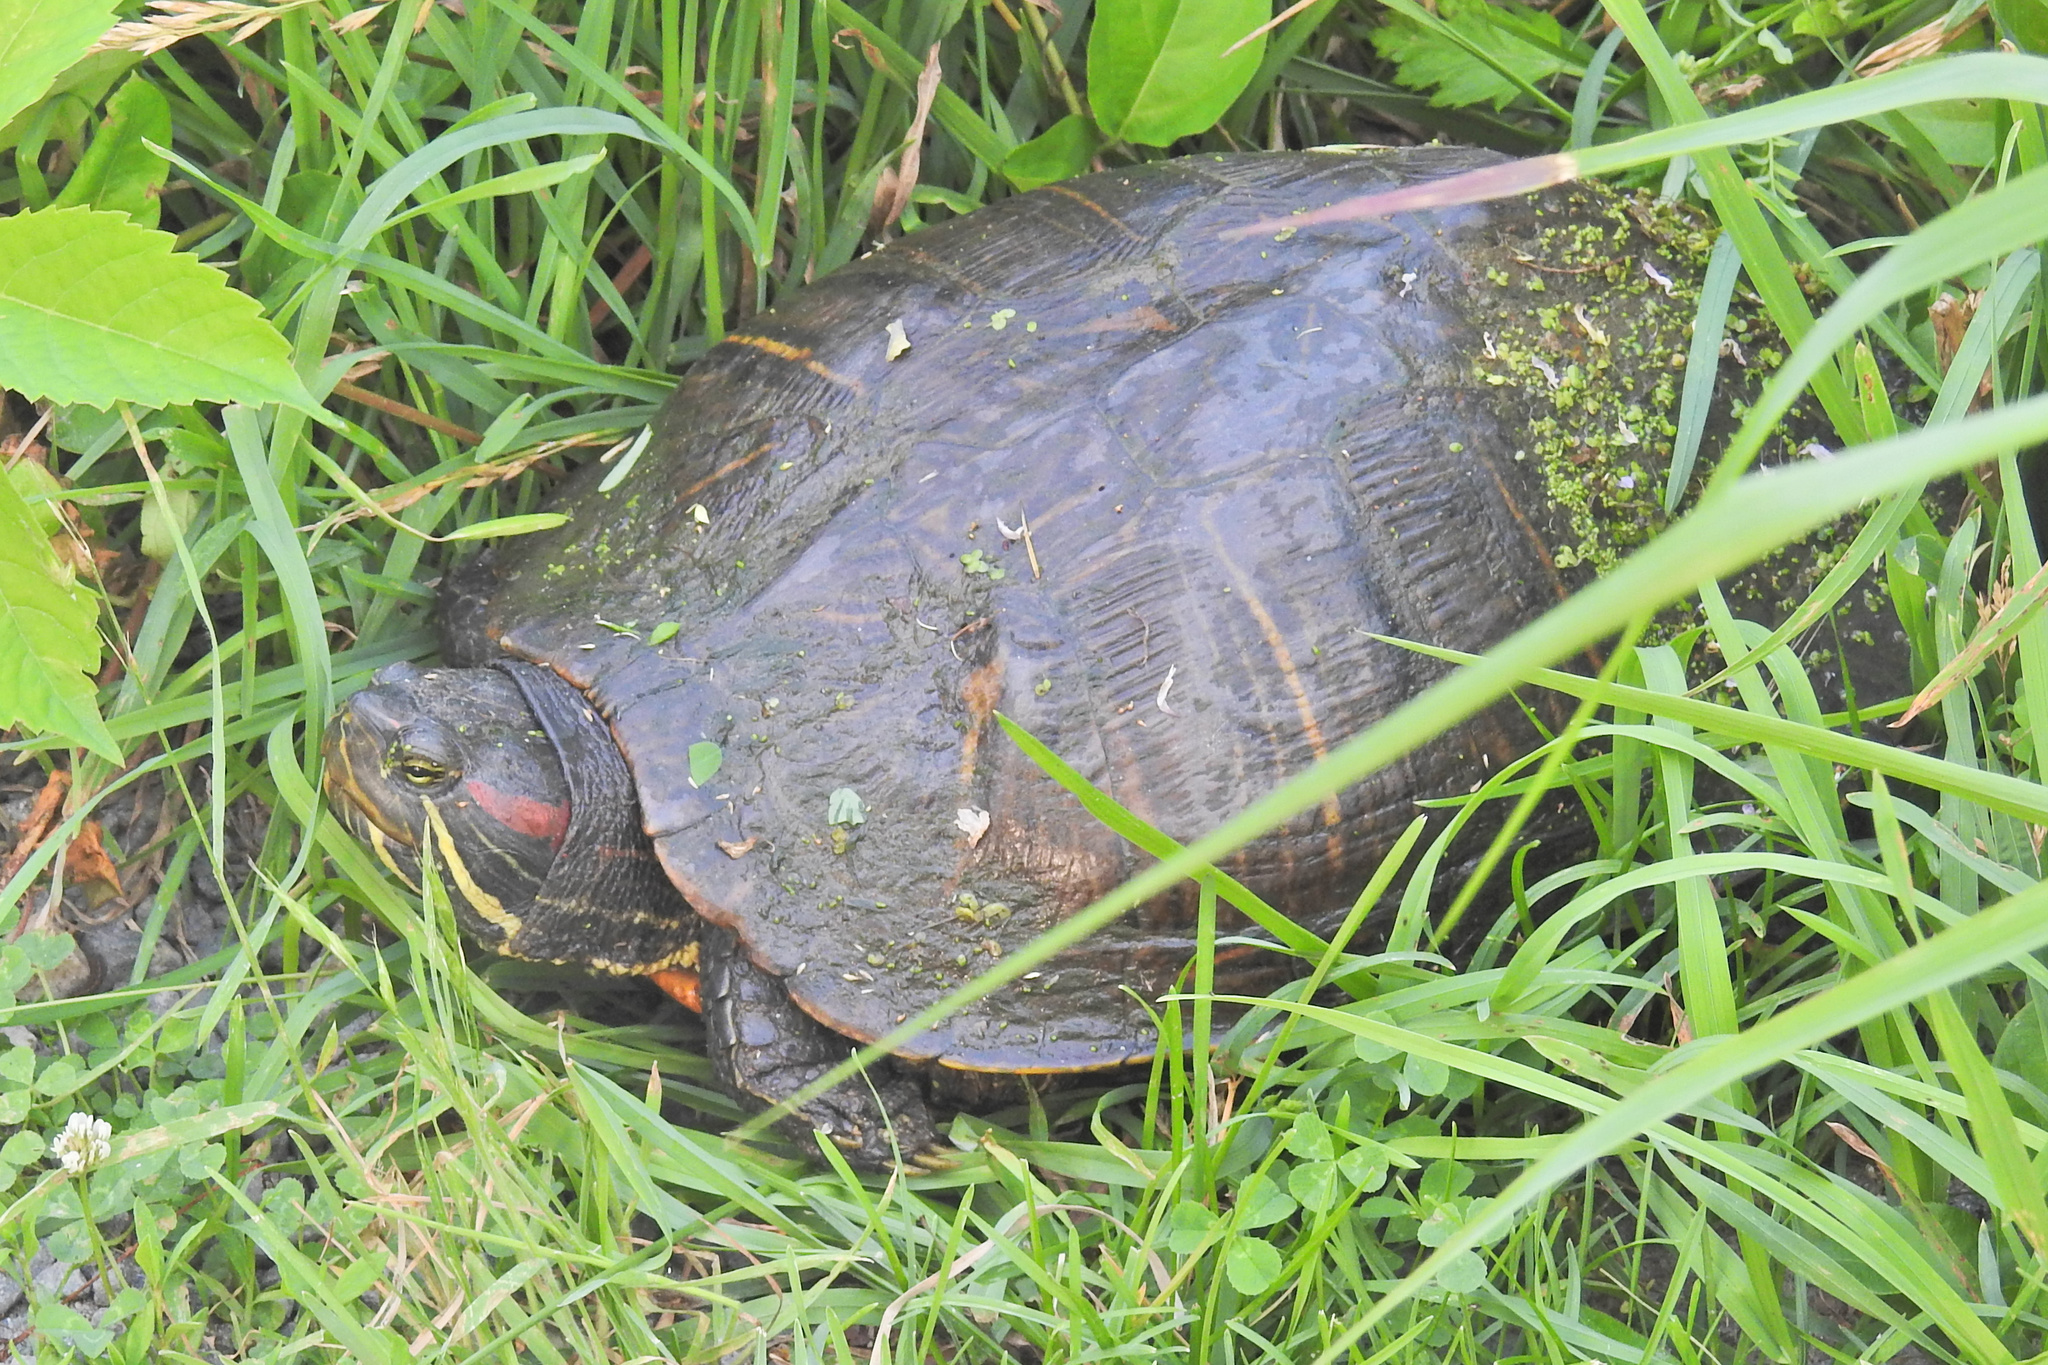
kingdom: Animalia
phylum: Chordata
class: Testudines
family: Emydidae
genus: Trachemys
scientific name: Trachemys scripta
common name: Slider
